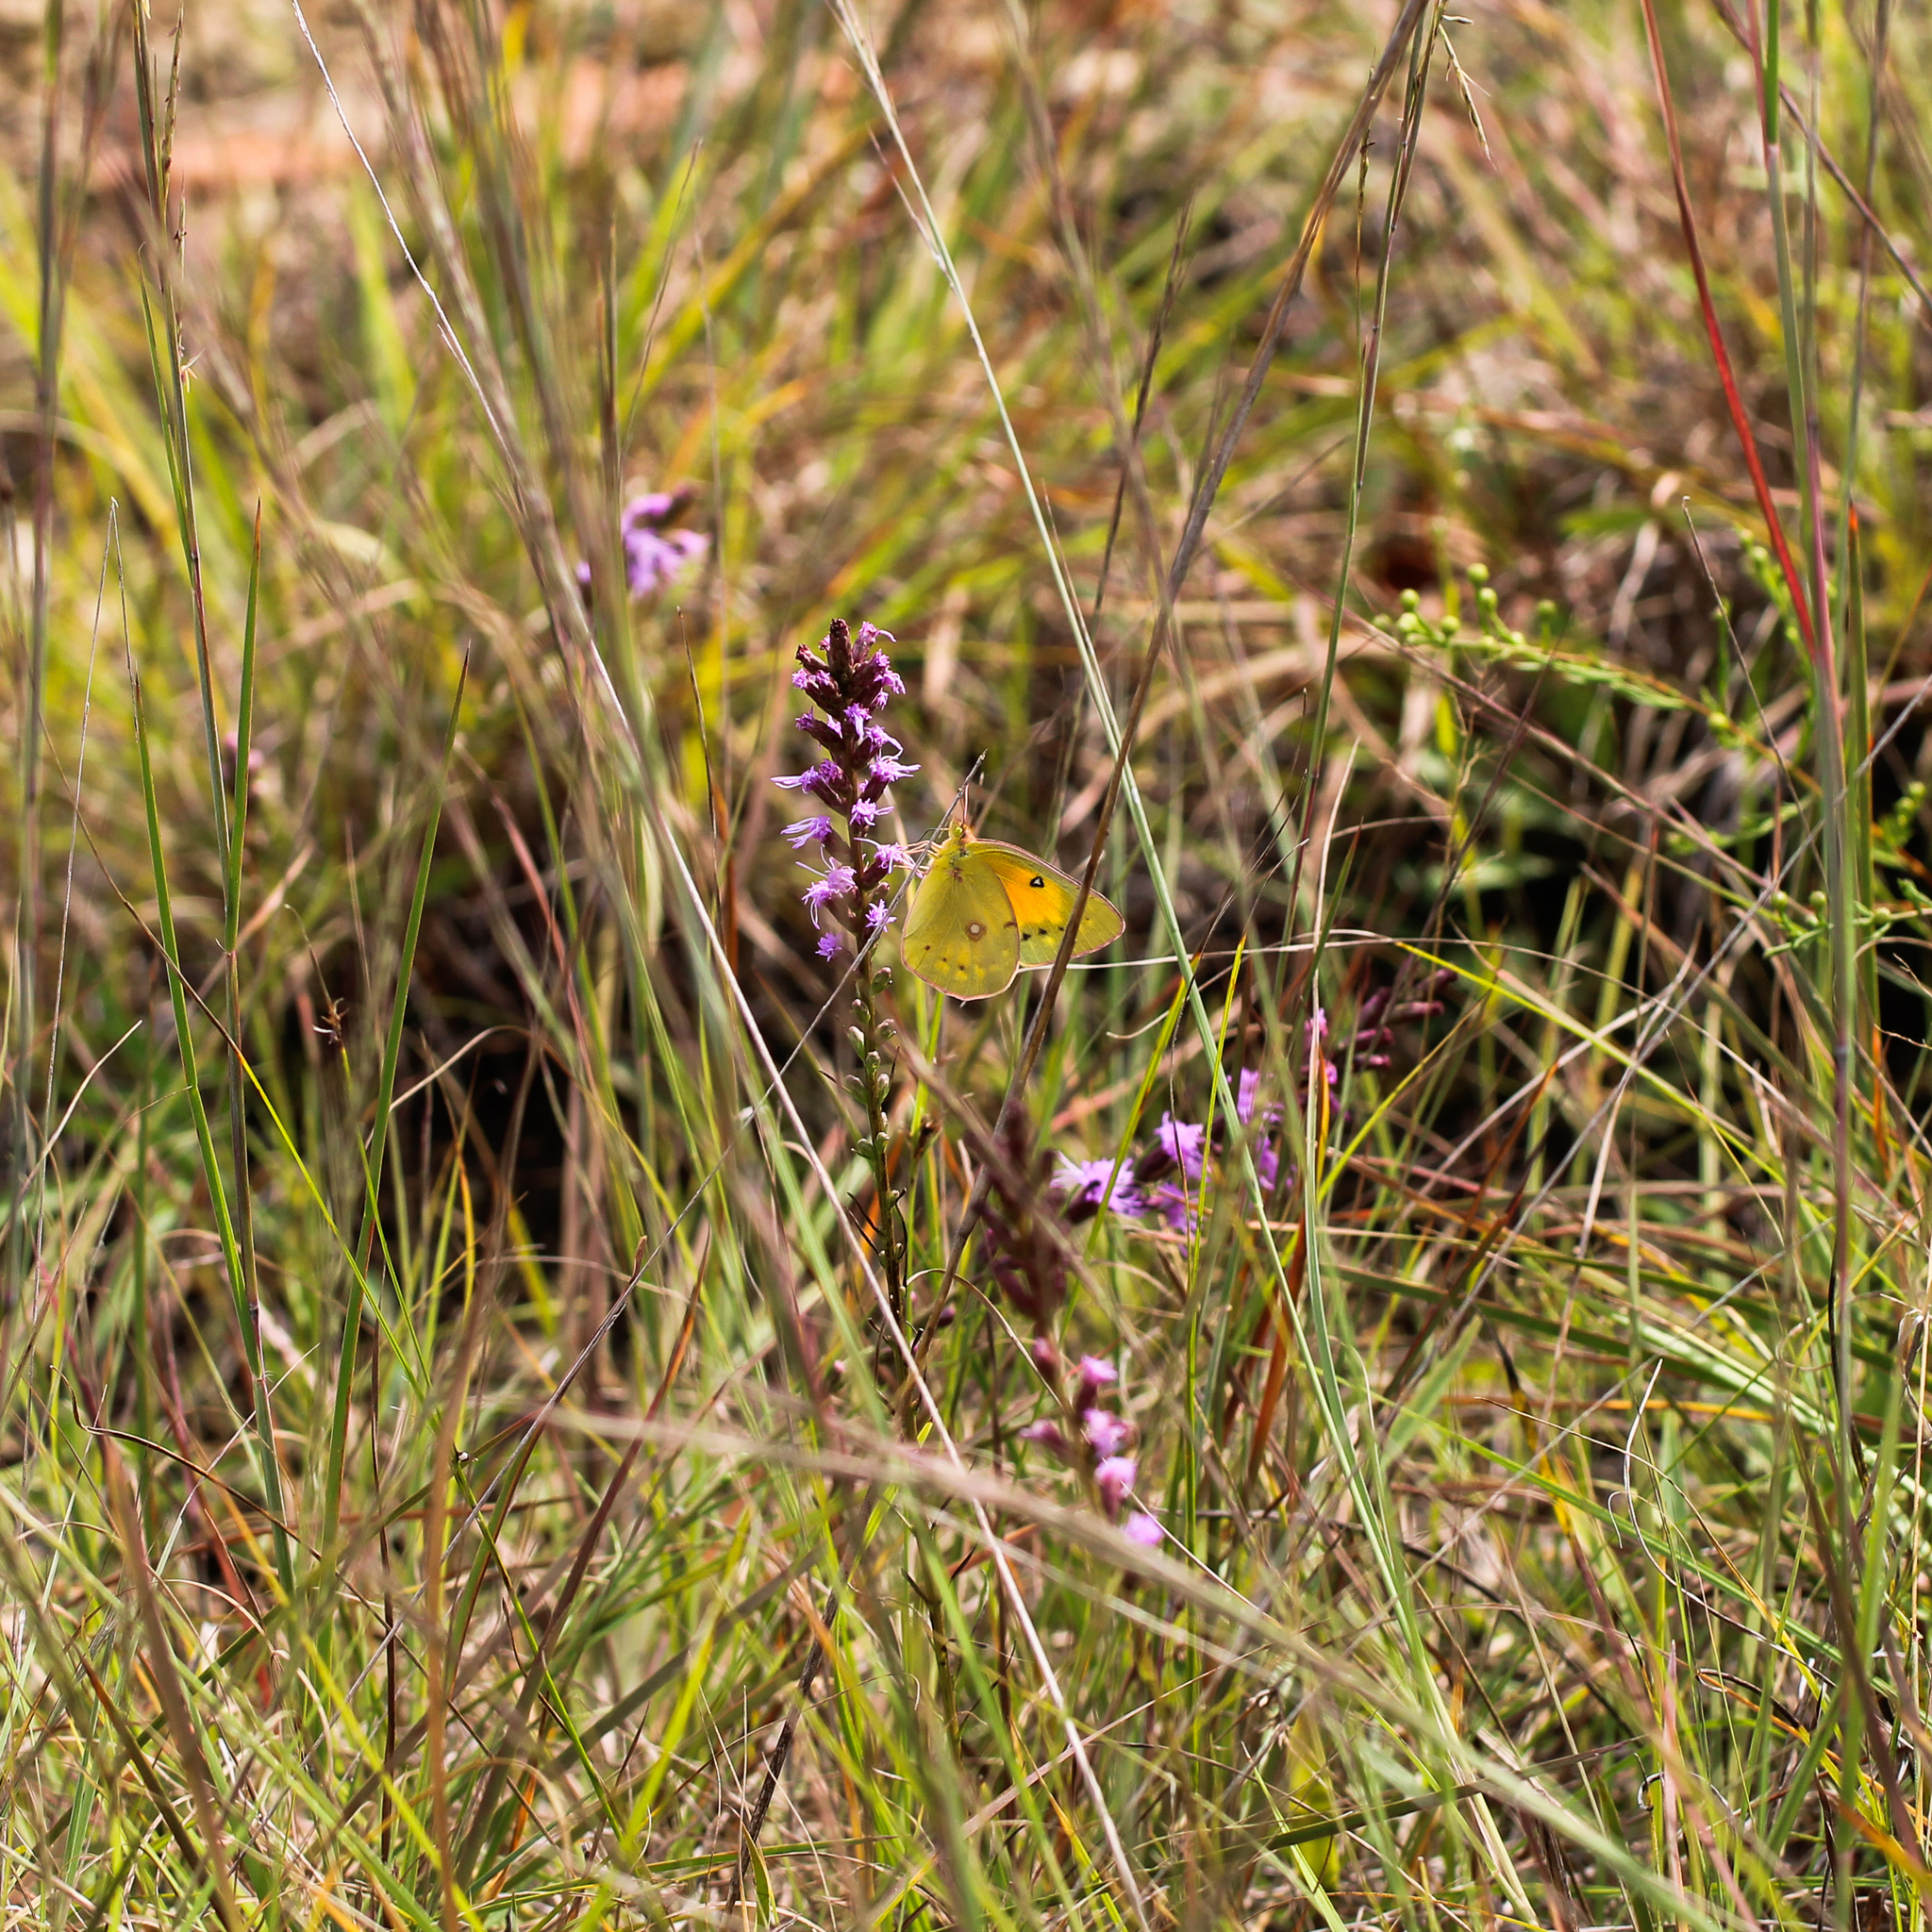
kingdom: Animalia
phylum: Arthropoda
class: Insecta
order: Lepidoptera
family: Pieridae
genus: Colias
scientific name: Colias eurytheme
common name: Alfalfa butterfly
